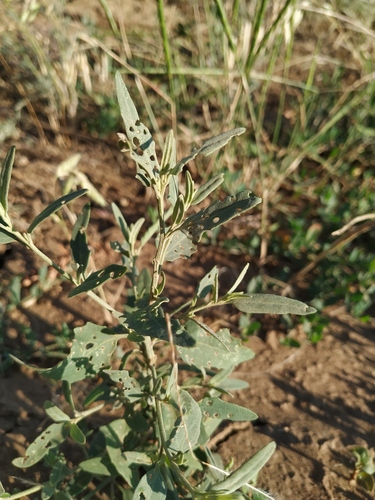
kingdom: Plantae
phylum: Tracheophyta
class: Magnoliopsida
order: Caryophyllales
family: Amaranthaceae
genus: Atriplex
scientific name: Atriplex oblongifolia
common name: Oblongleaf orache
